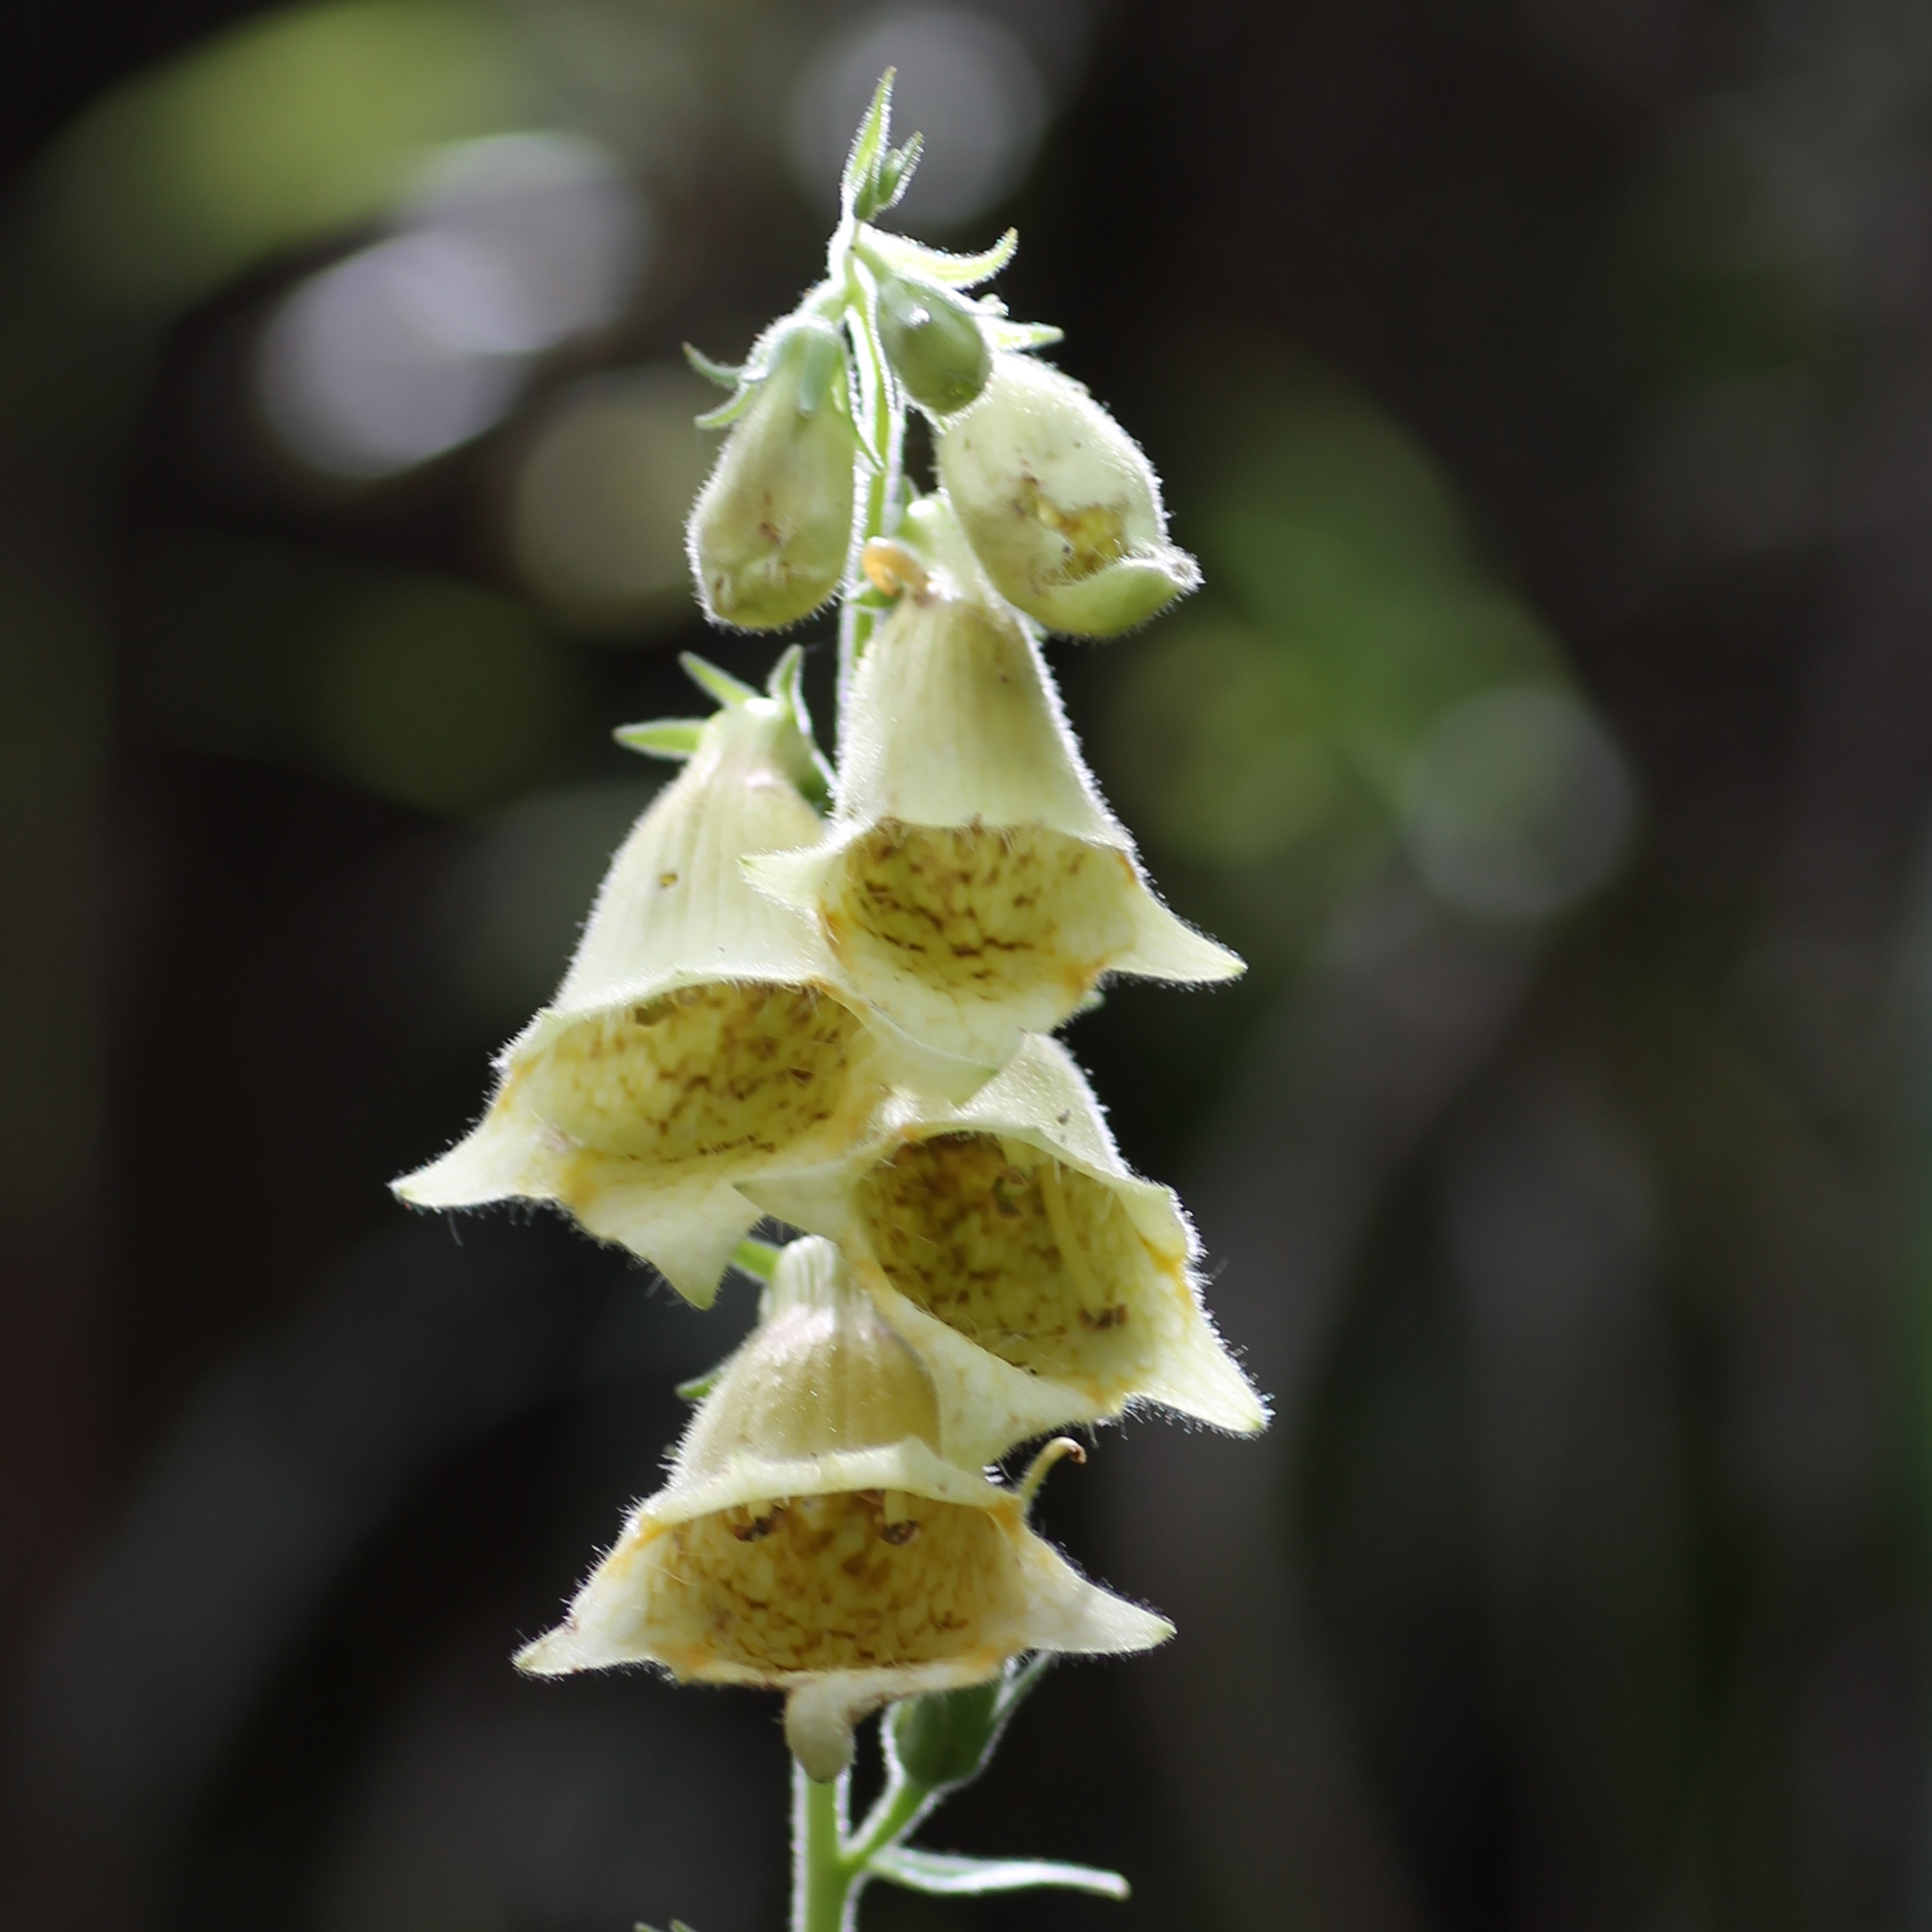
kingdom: Plantae
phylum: Tracheophyta
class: Magnoliopsida
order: Lamiales
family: Plantaginaceae
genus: Digitalis
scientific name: Digitalis grandiflora
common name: Yellow foxglove
